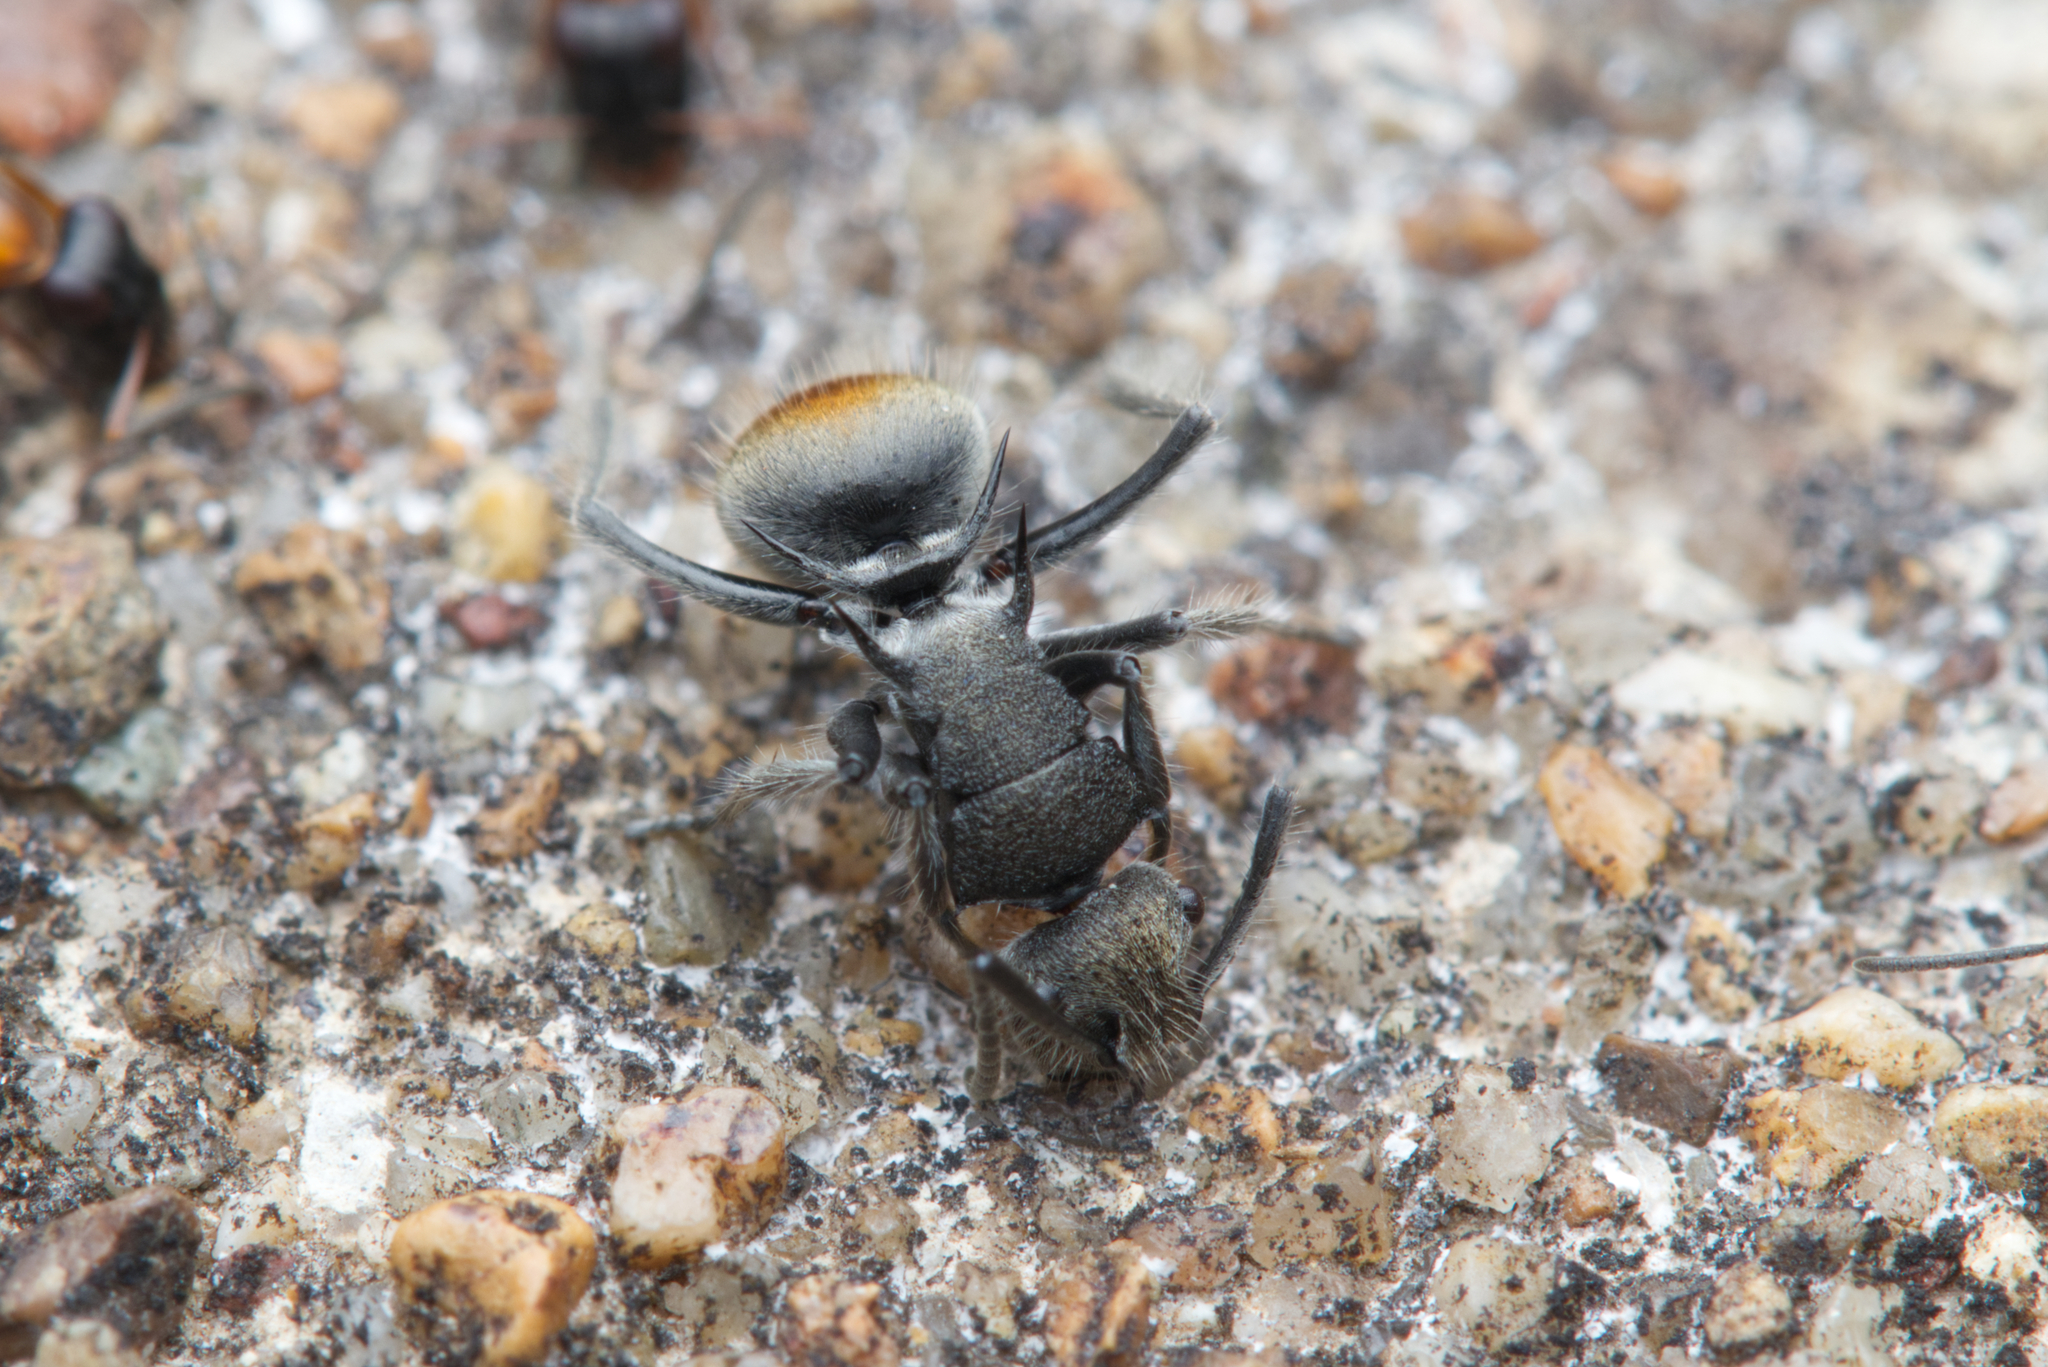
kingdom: Animalia
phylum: Arthropoda
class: Insecta
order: Hymenoptera
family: Formicidae
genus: Polyrhachis
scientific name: Polyrhachis vermiculosa
